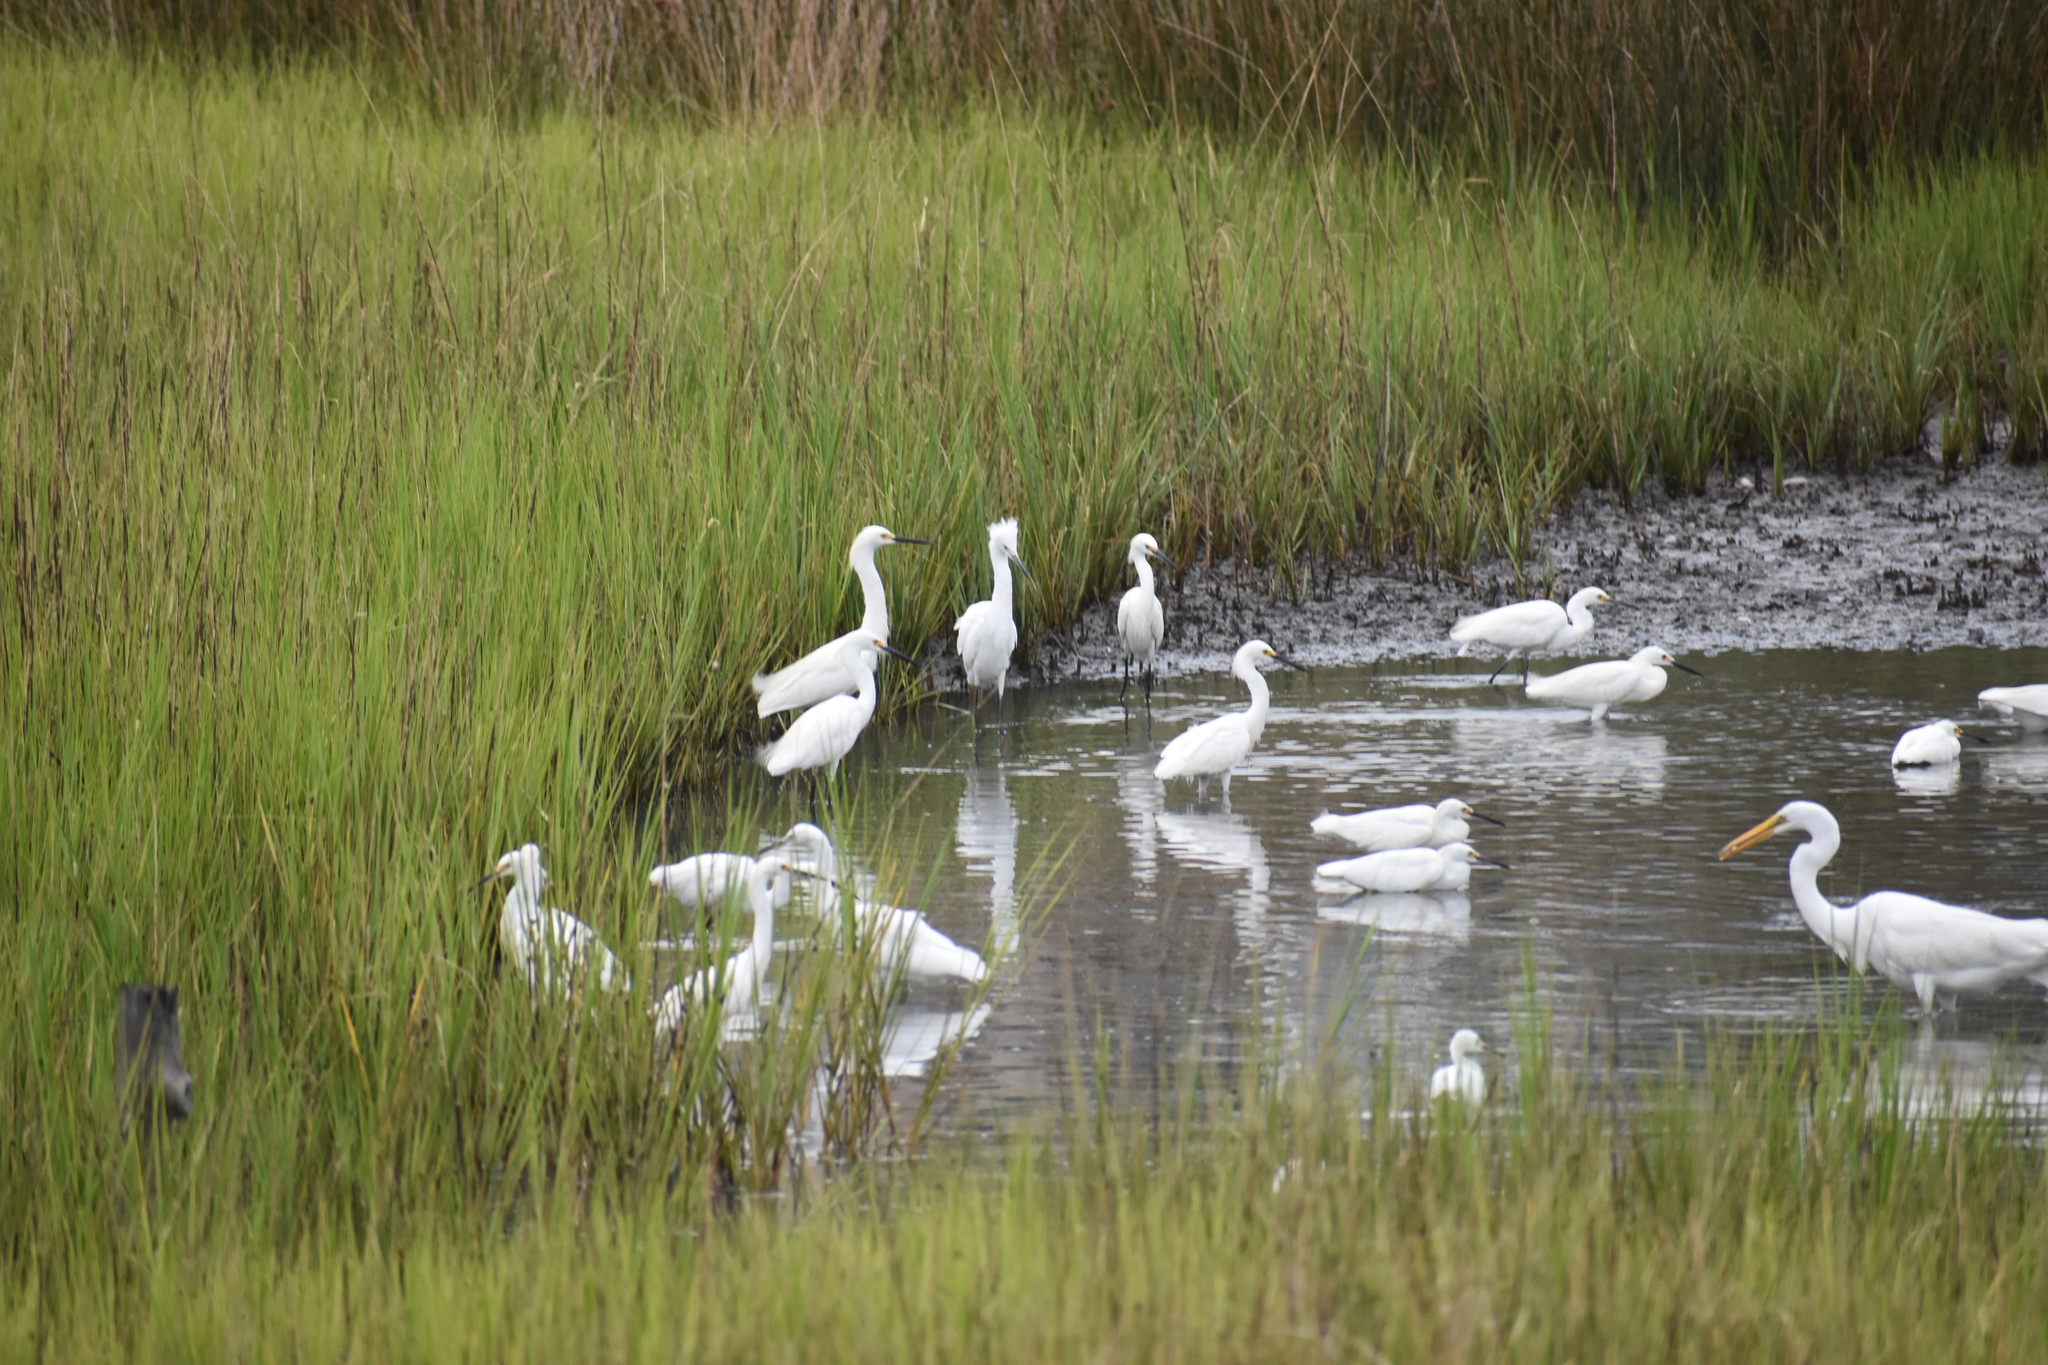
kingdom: Animalia
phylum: Chordata
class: Aves
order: Pelecaniformes
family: Ardeidae
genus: Egretta
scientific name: Egretta thula
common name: Snowy egret
